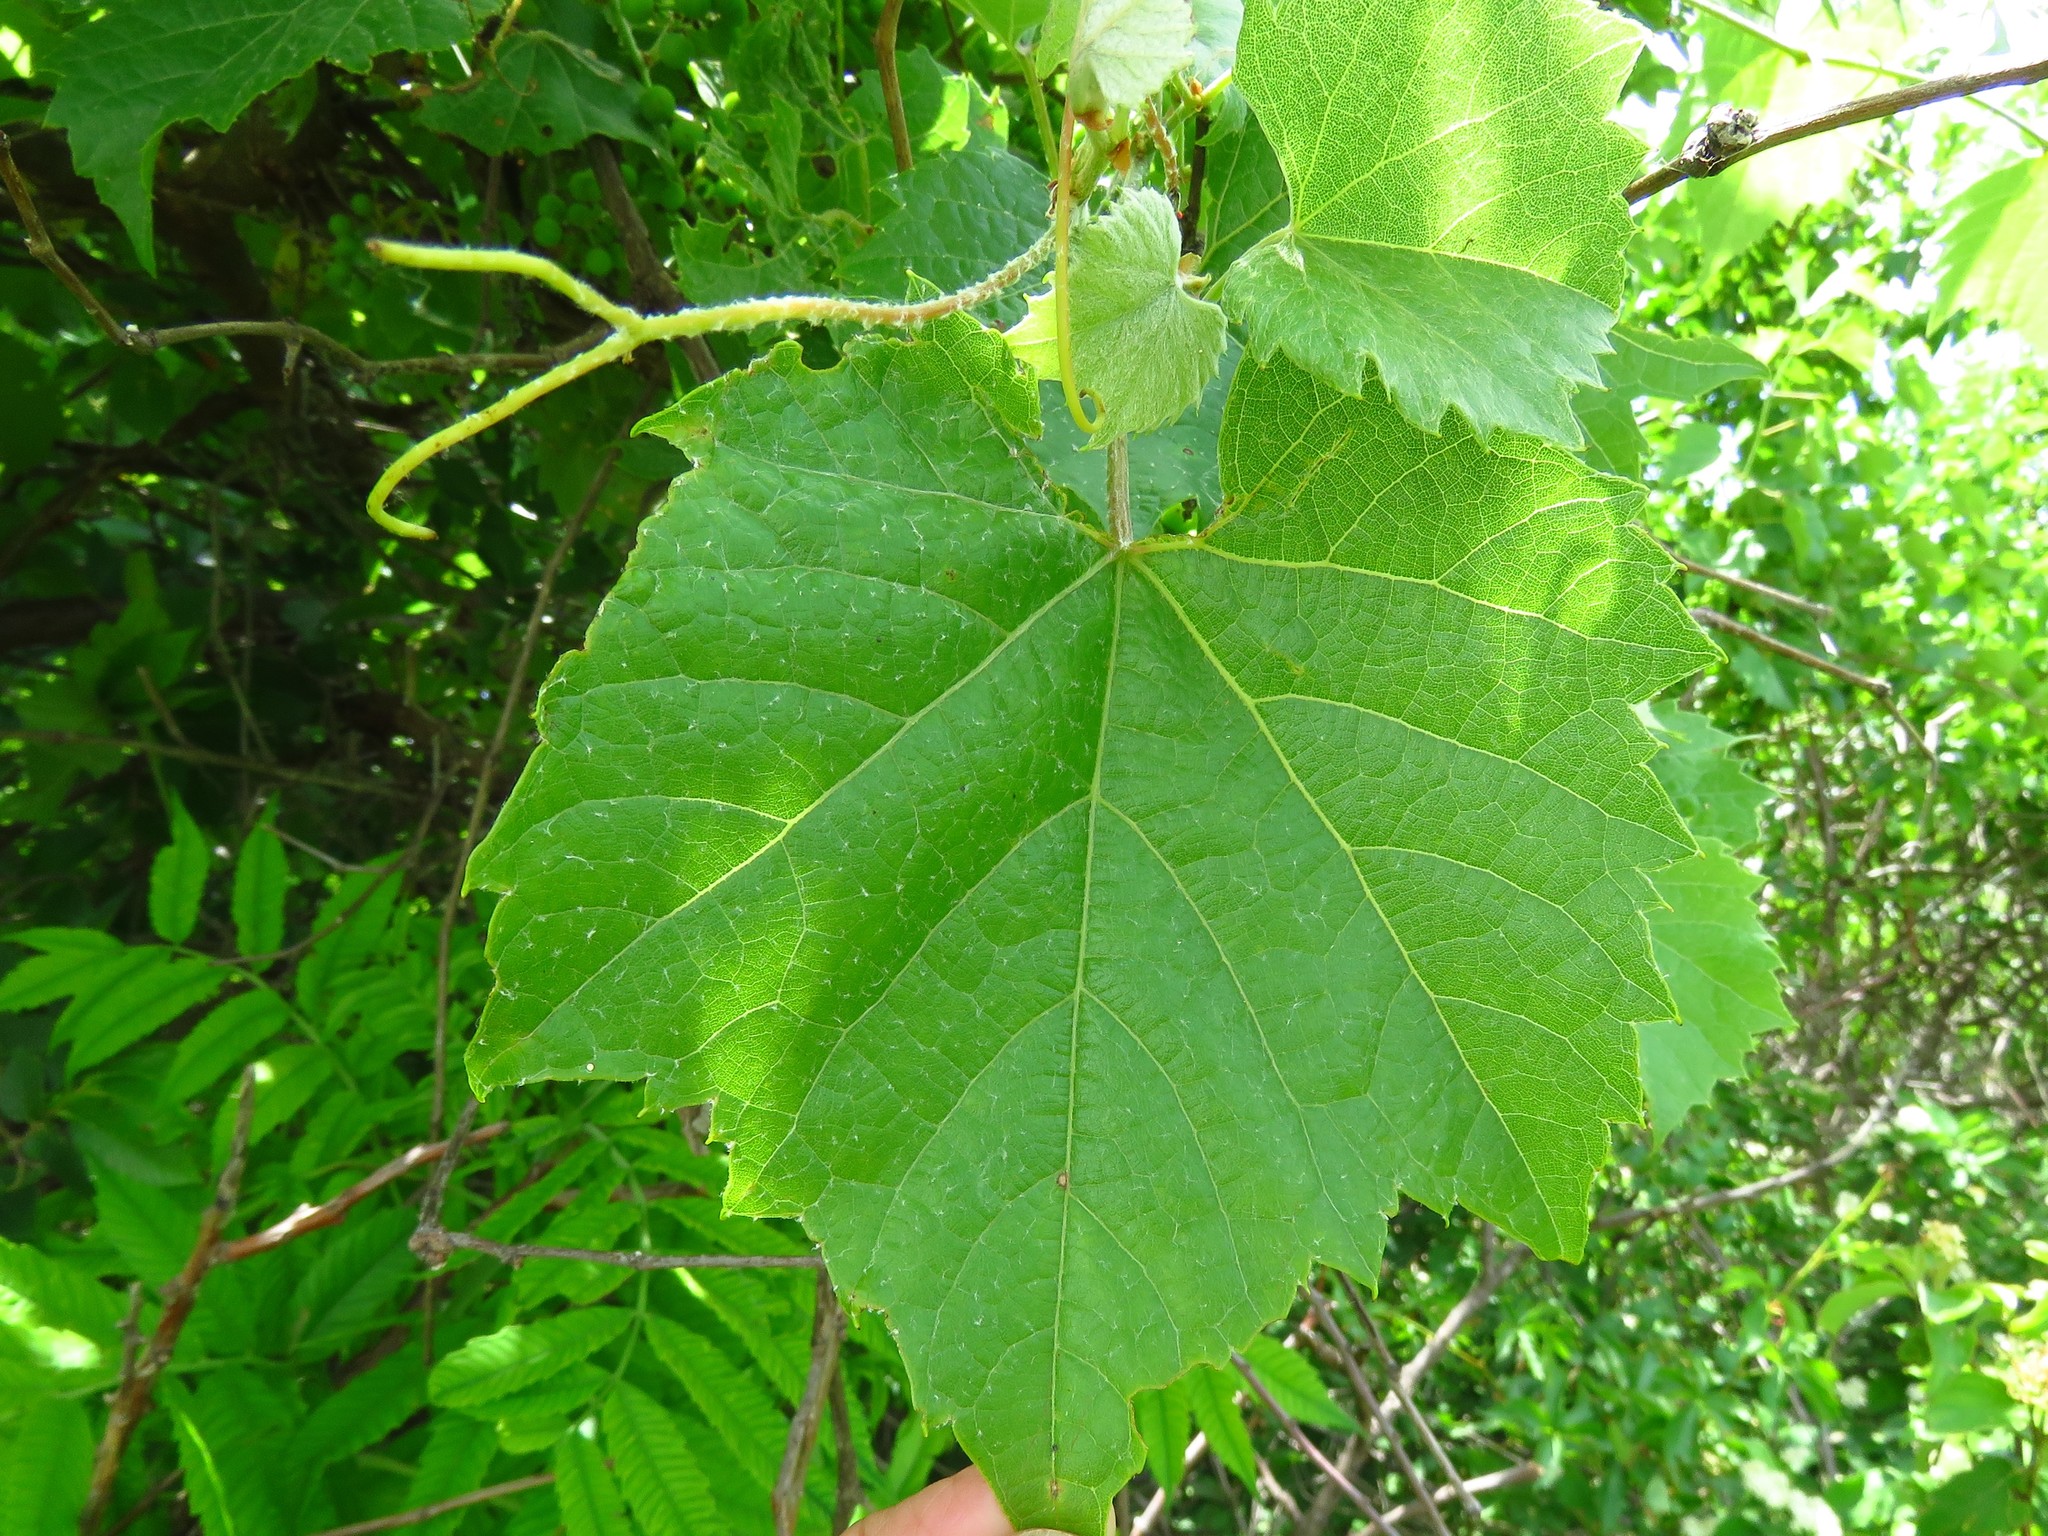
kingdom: Plantae
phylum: Tracheophyta
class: Magnoliopsida
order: Vitales
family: Vitaceae
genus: Vitis
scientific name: Vitis riparia
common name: Frost grape
